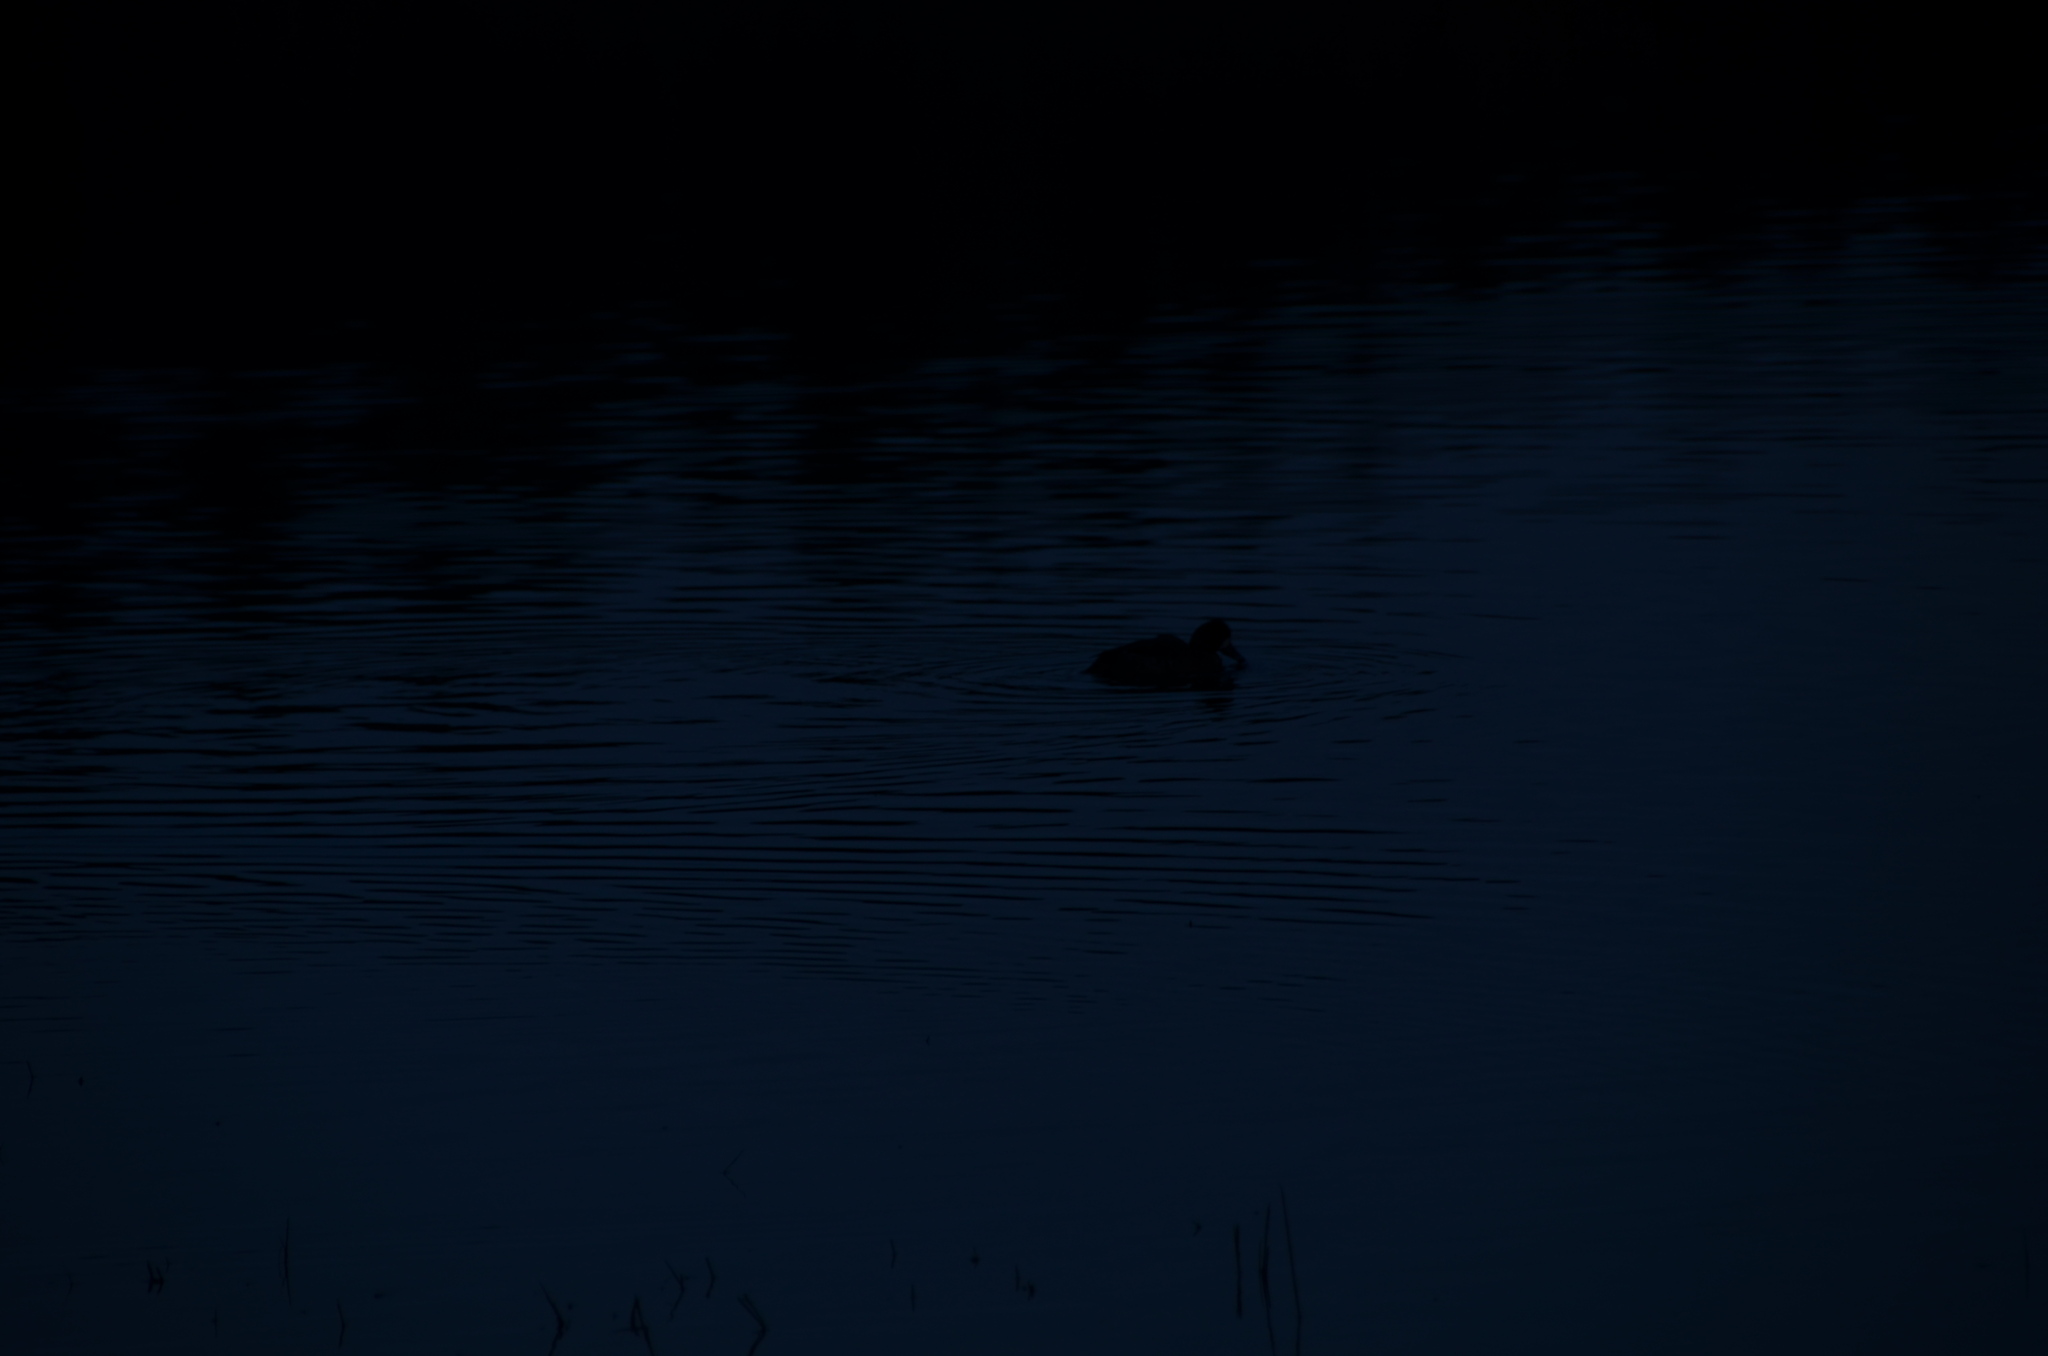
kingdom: Animalia
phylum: Chordata
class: Aves
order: Anseriformes
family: Anatidae
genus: Aythya
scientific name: Aythya affinis
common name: Lesser scaup
